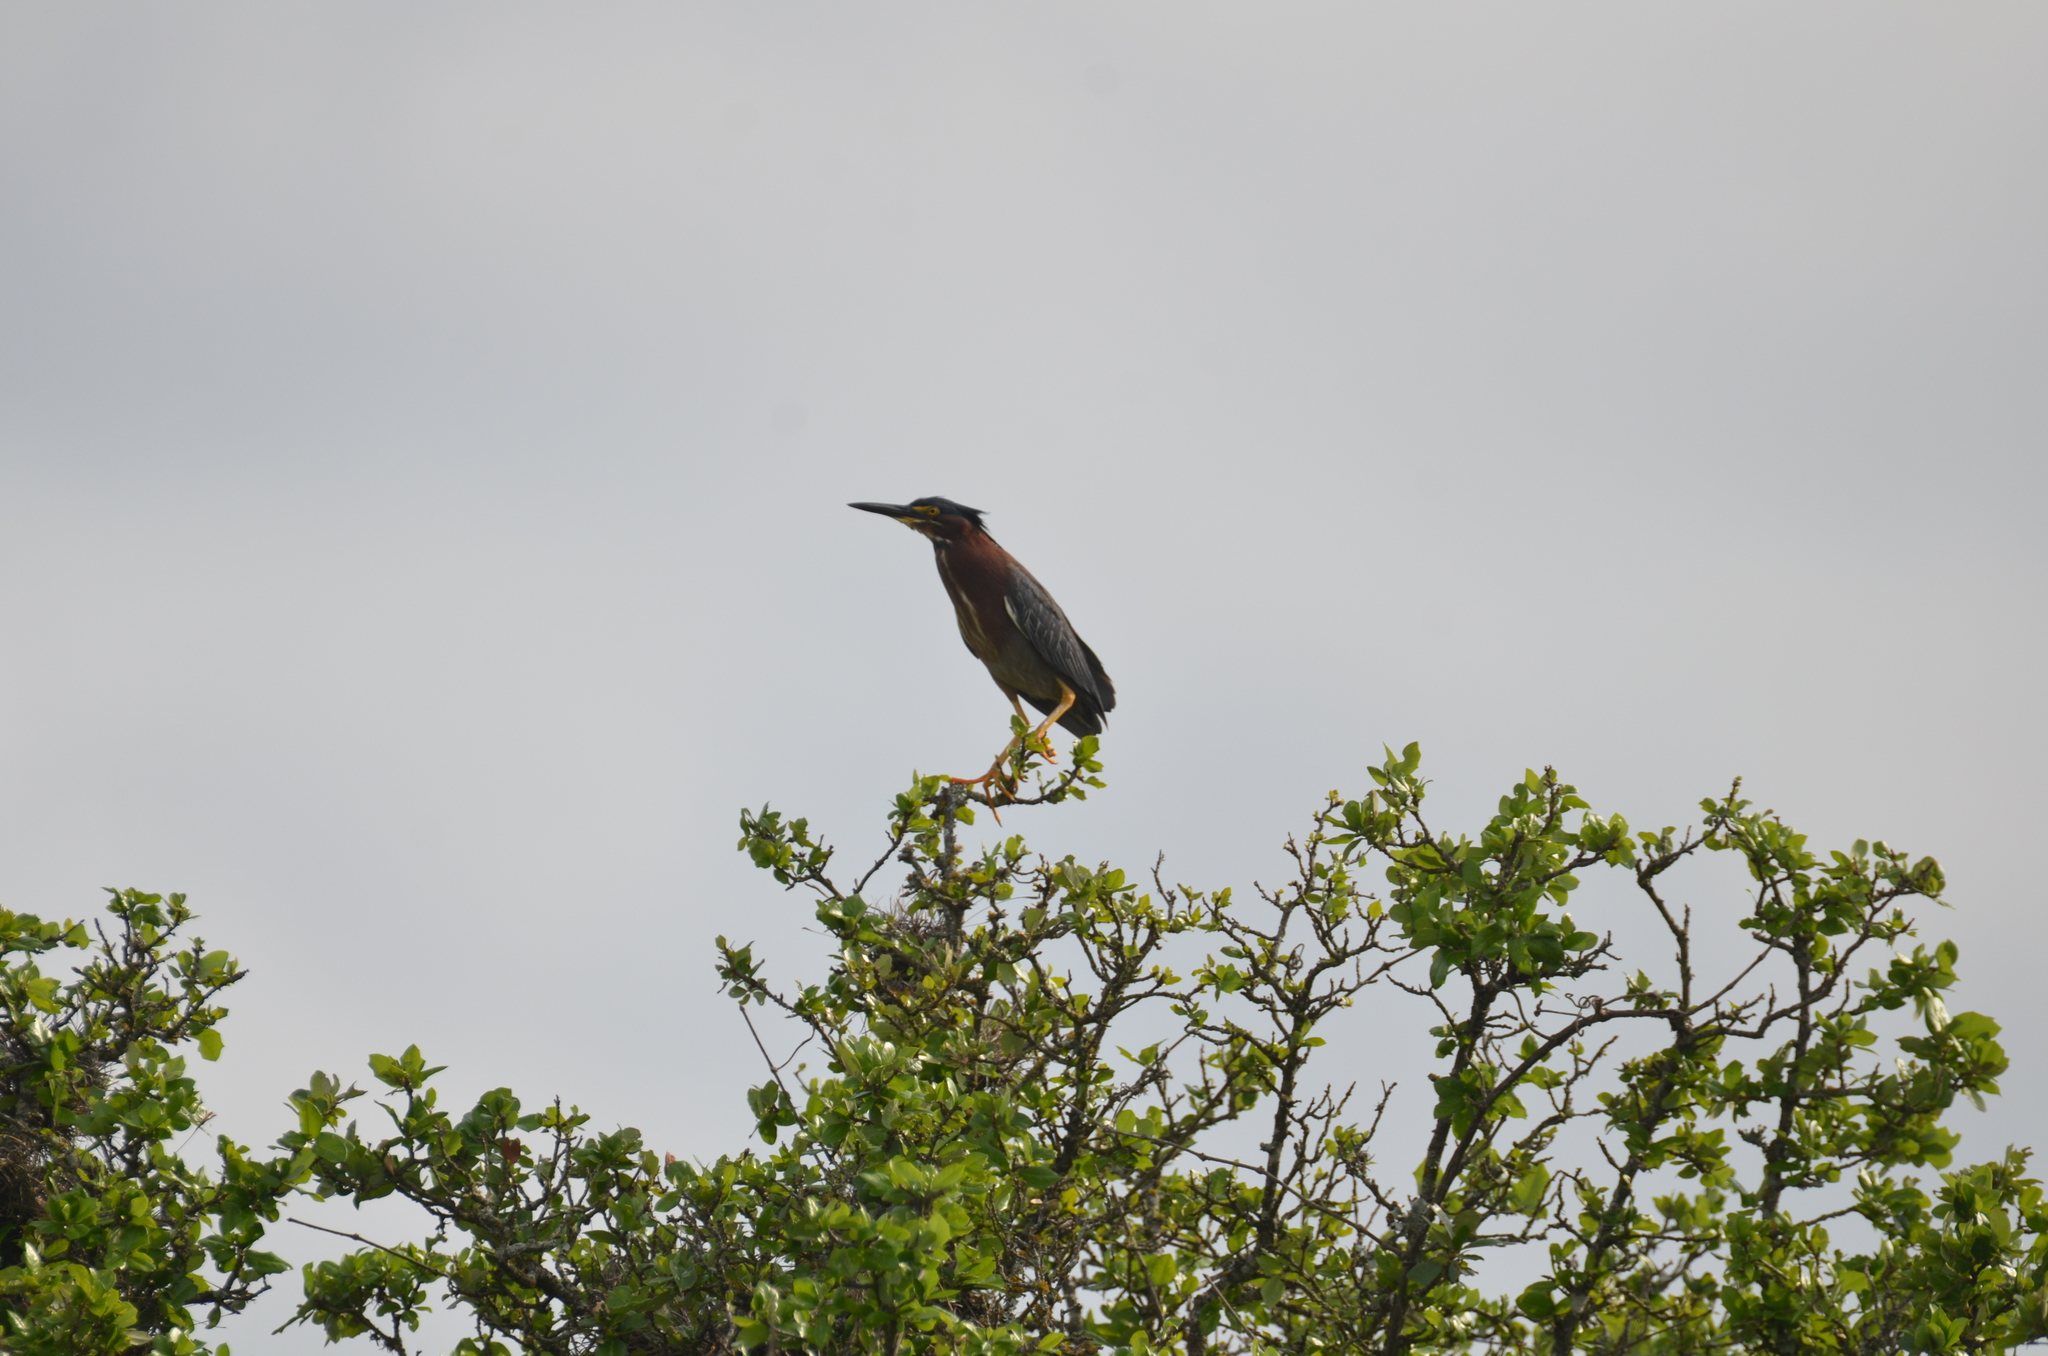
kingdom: Animalia
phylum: Chordata
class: Aves
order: Pelecaniformes
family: Ardeidae
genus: Butorides
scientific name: Butorides virescens
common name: Green heron
